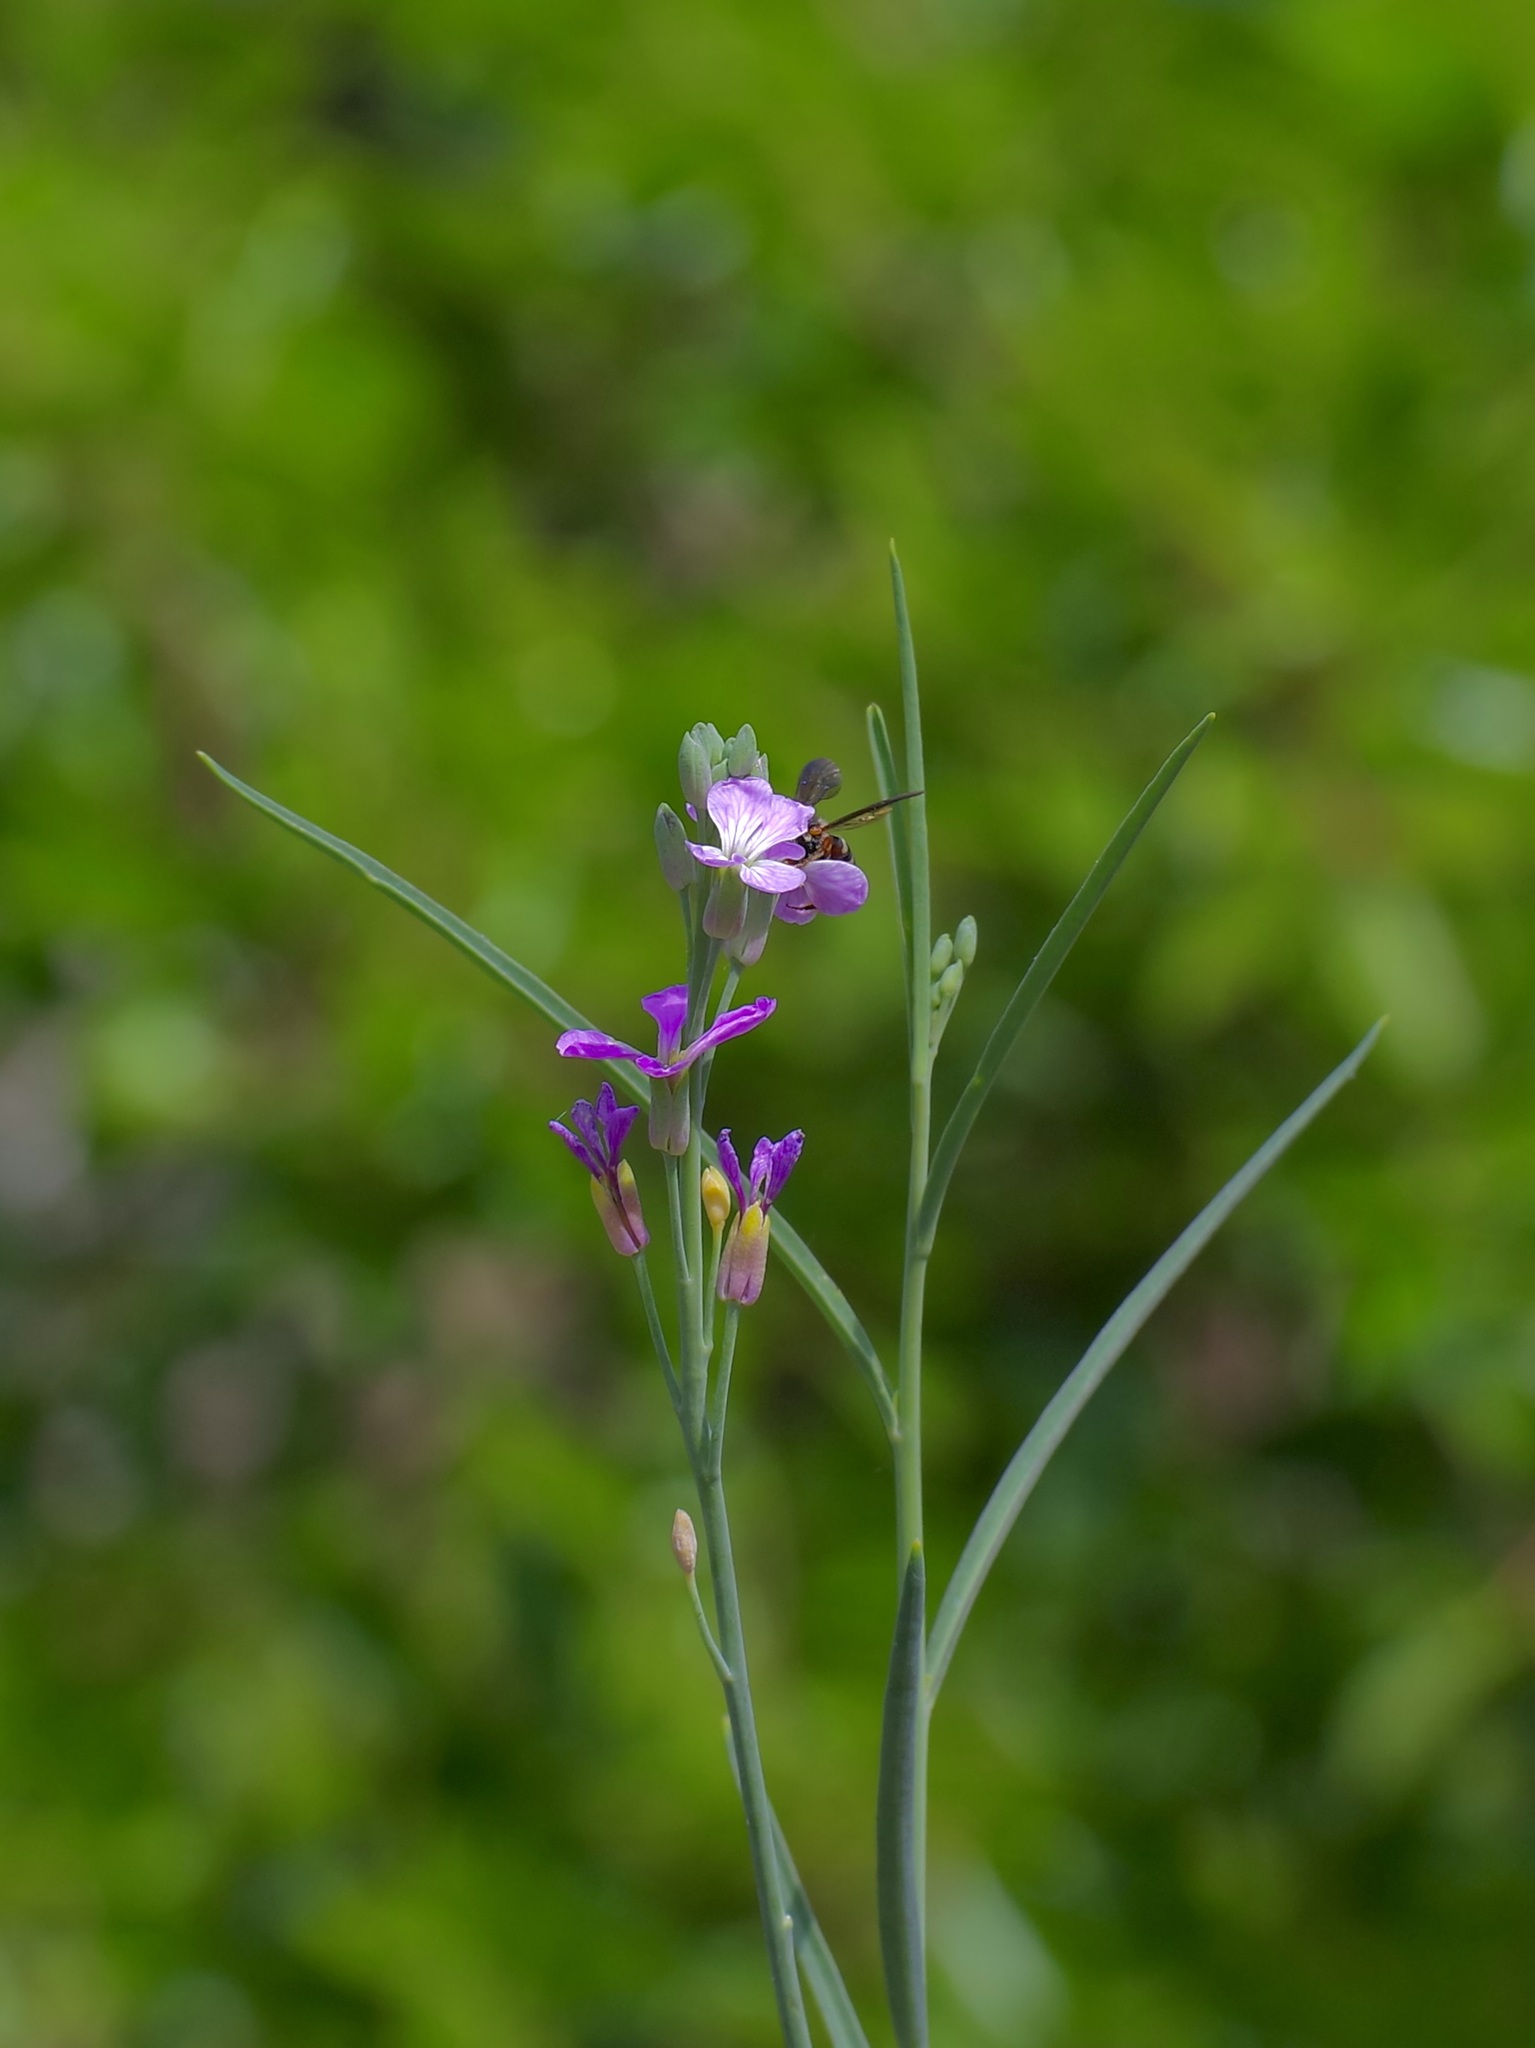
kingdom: Plantae
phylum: Tracheophyta
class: Magnoliopsida
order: Brassicales
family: Brassicaceae
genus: Hesperidanthus
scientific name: Hesperidanthus linearifolius
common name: Slim-leaf plains mustard
